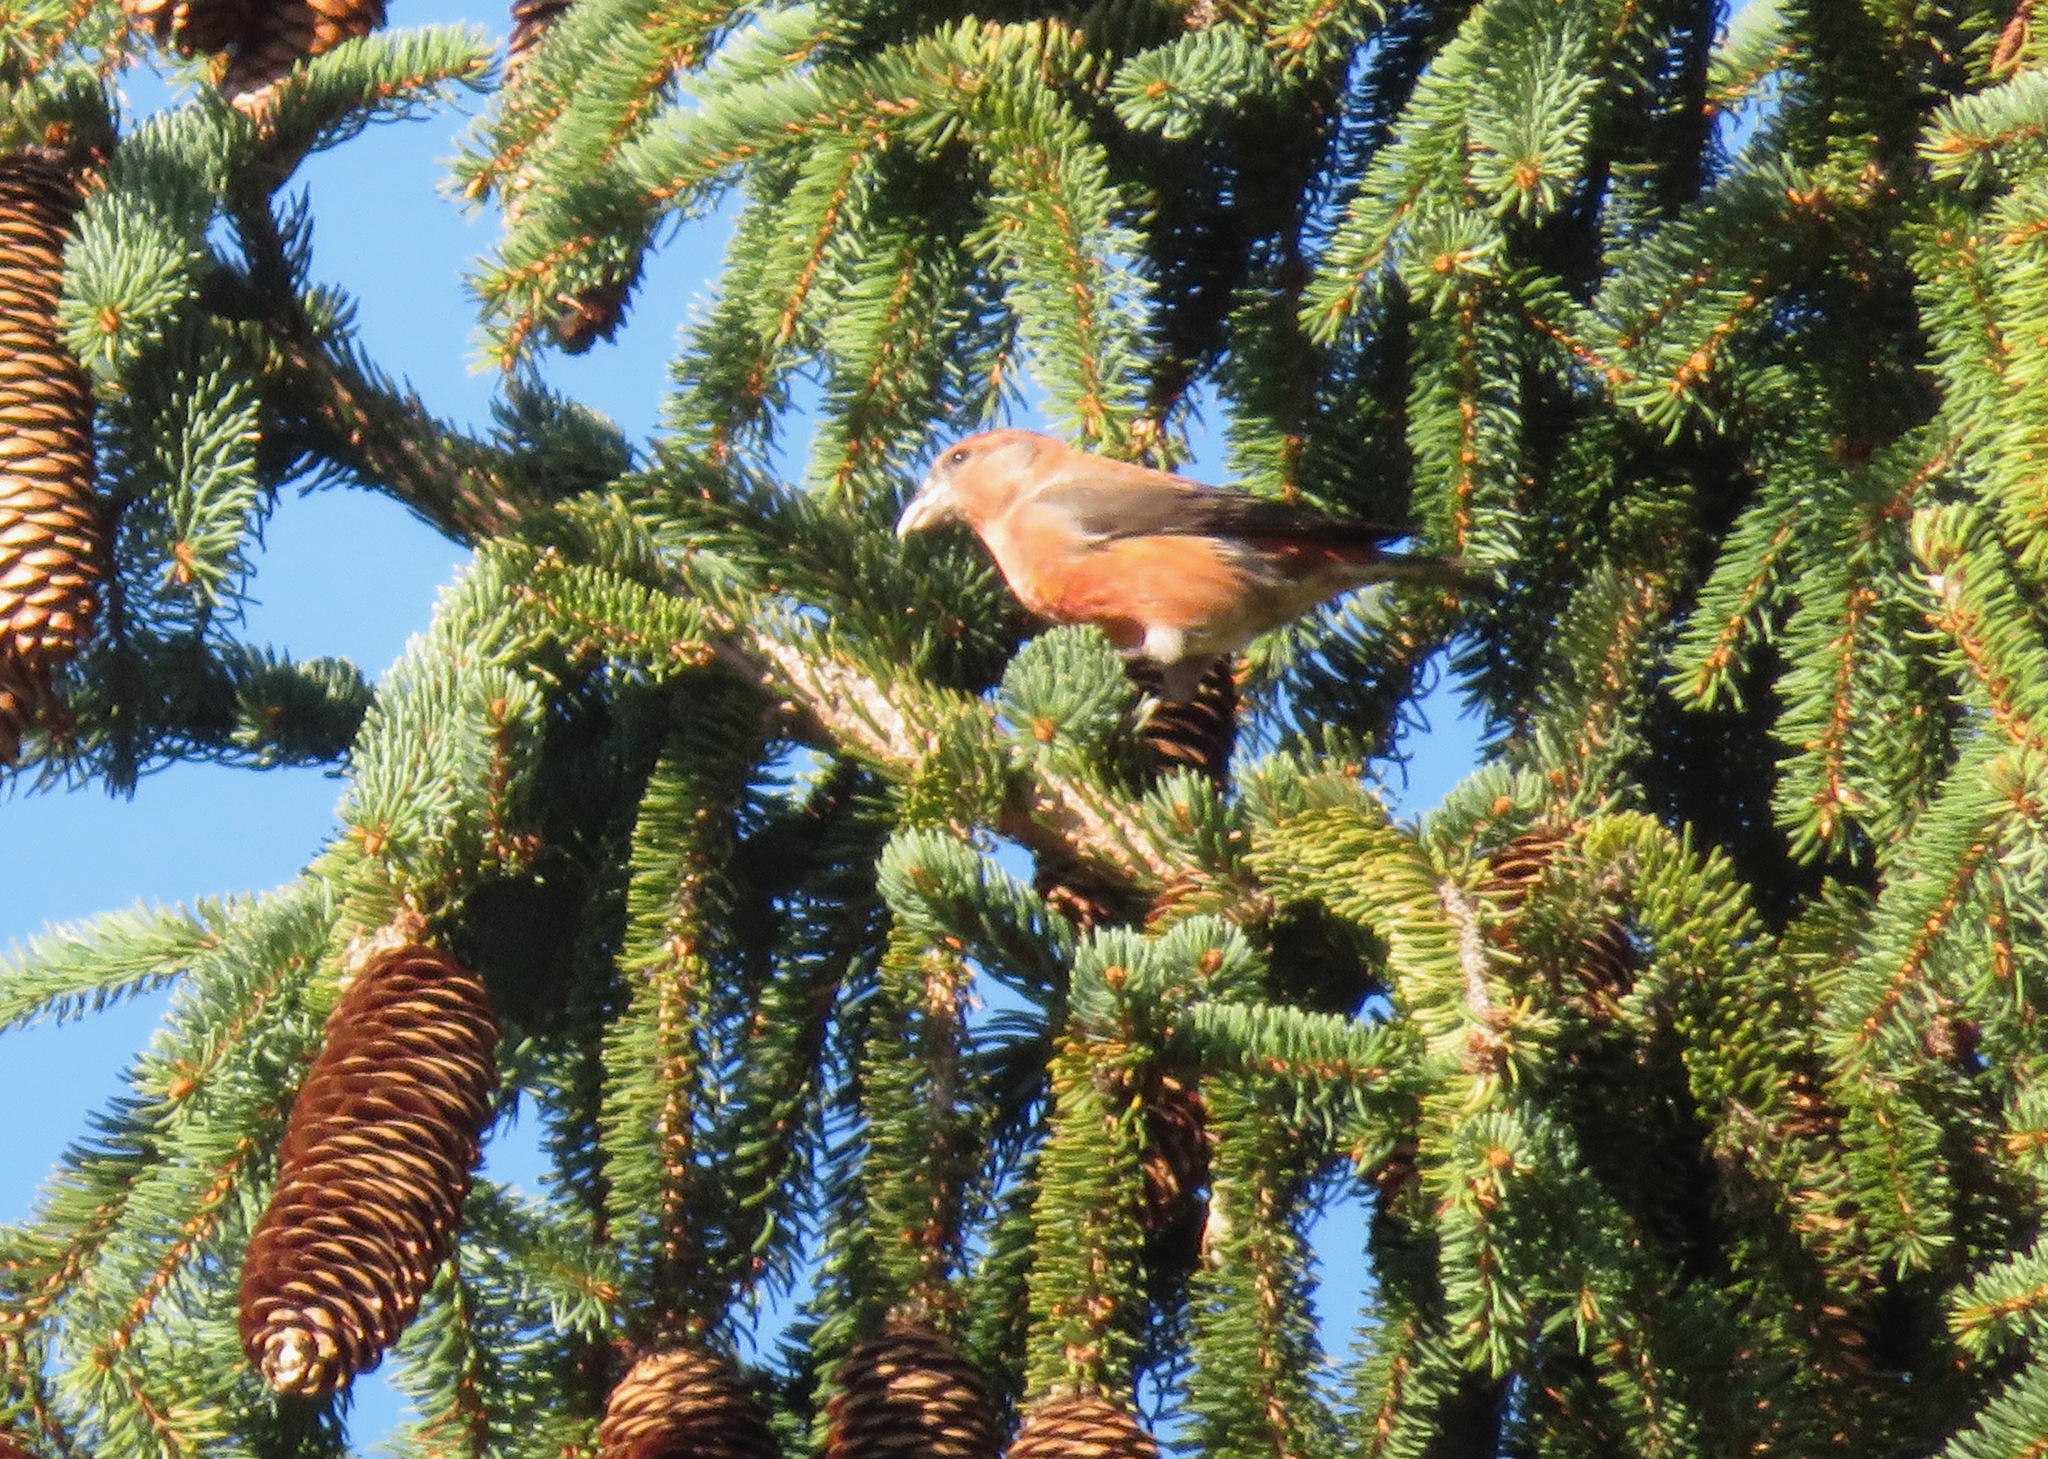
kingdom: Animalia
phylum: Chordata
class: Aves
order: Passeriformes
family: Fringillidae
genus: Loxia
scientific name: Loxia curvirostra
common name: Red crossbill
